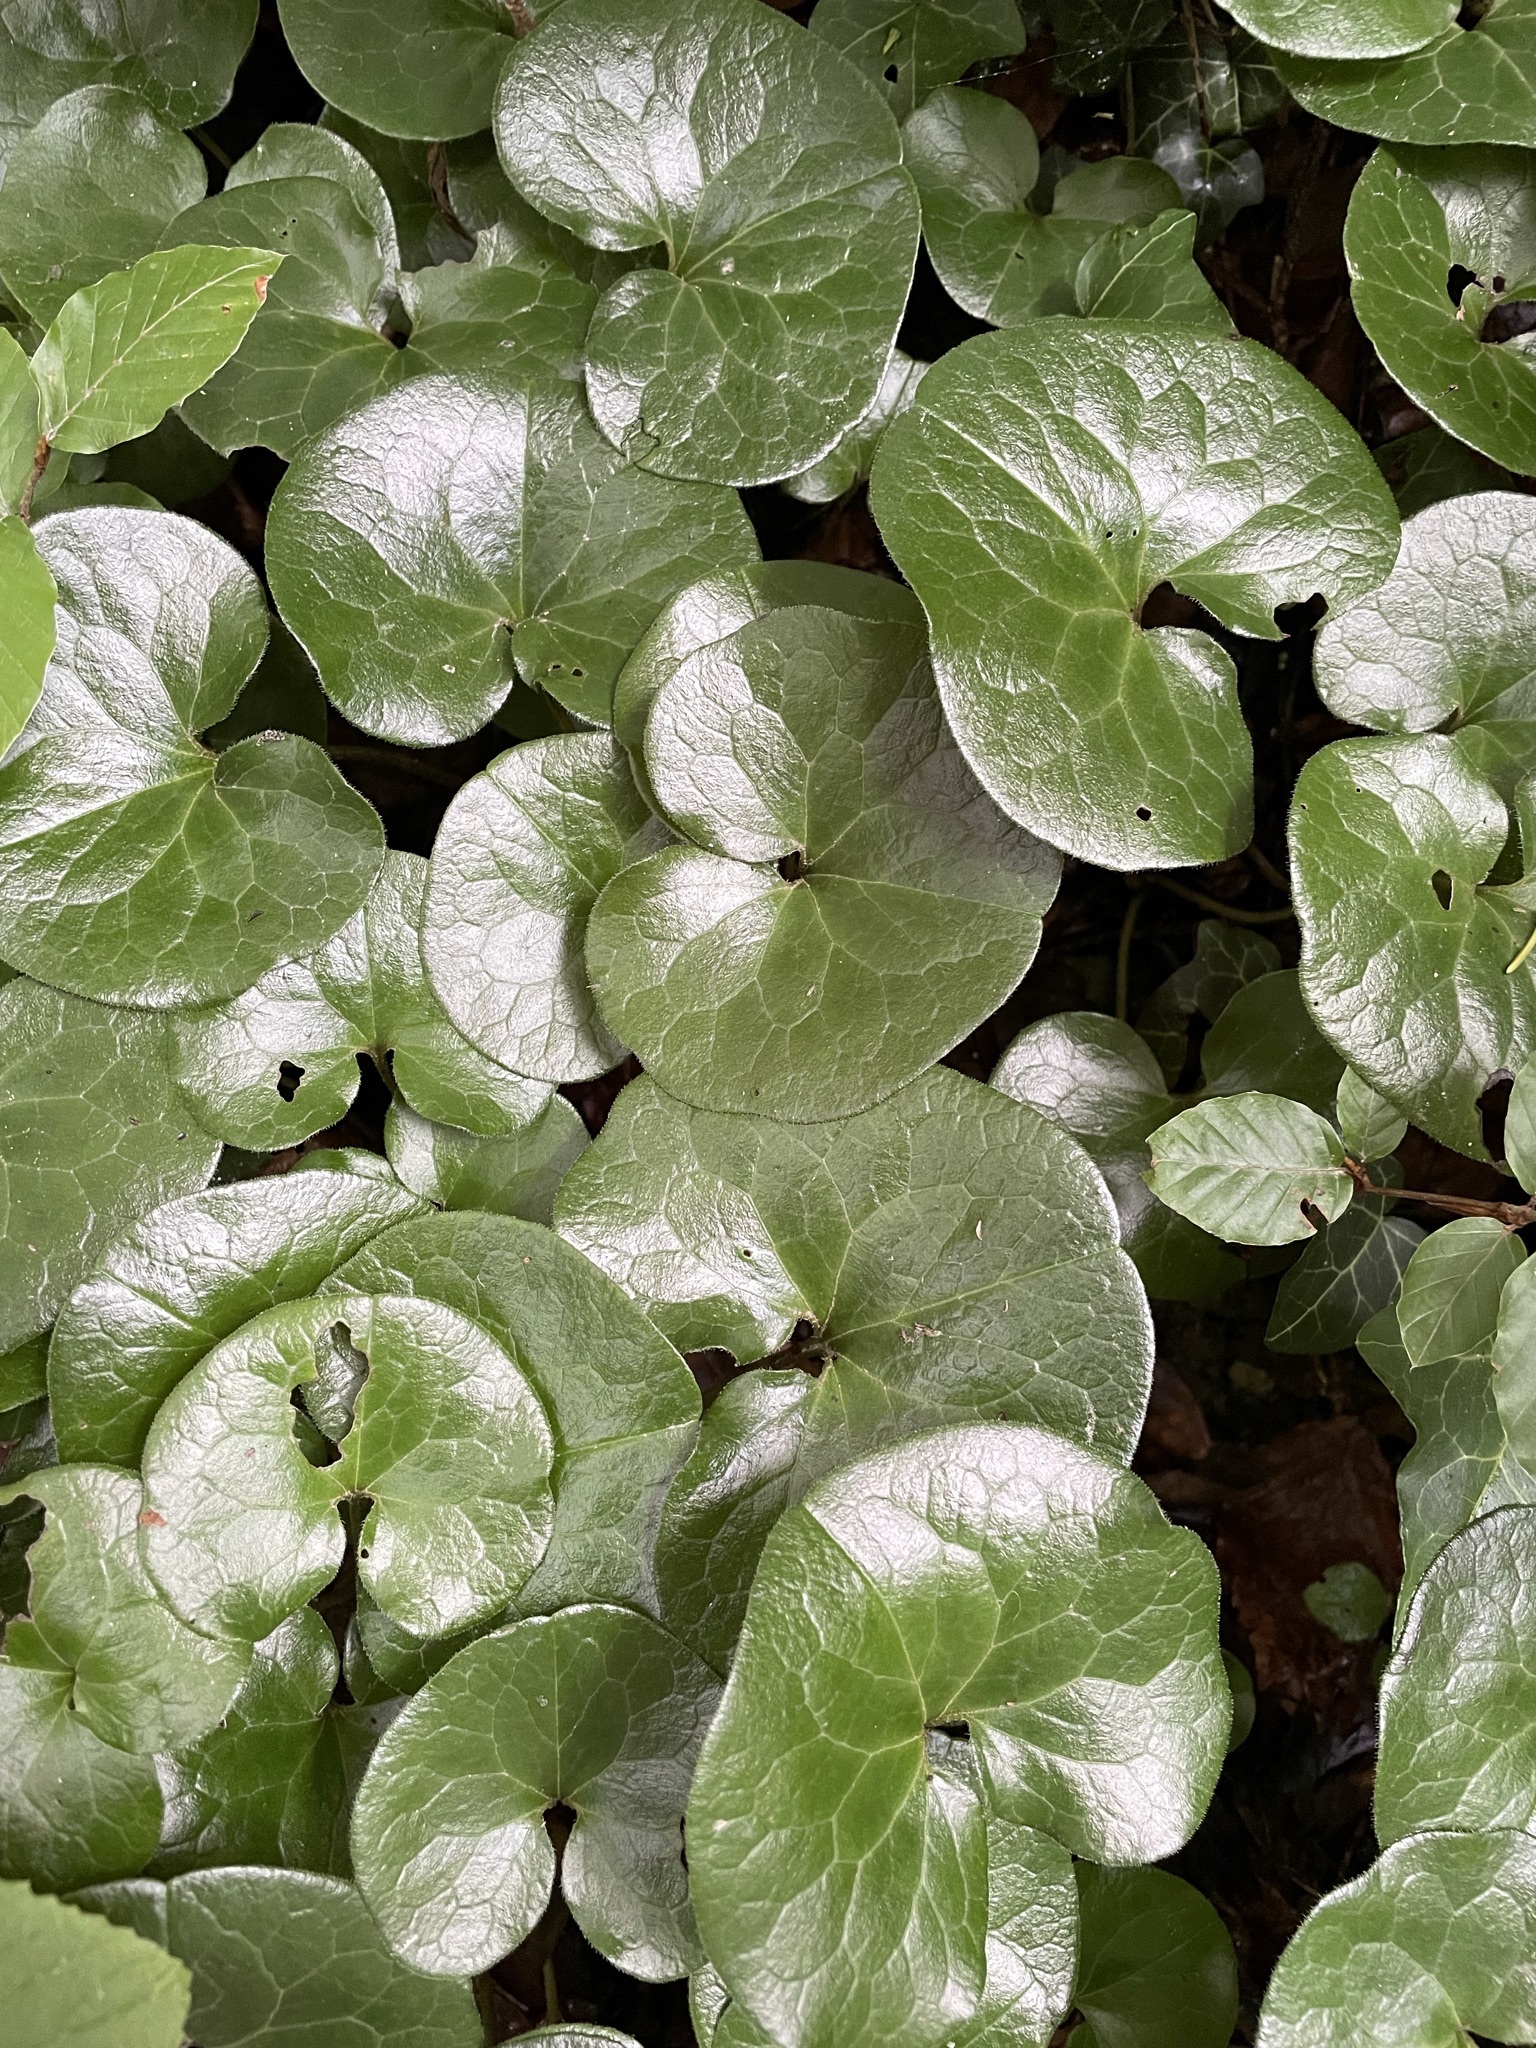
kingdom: Plantae
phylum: Tracheophyta
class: Magnoliopsida
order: Piperales
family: Aristolochiaceae
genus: Asarum
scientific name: Asarum europaeum
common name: Asarabacca
